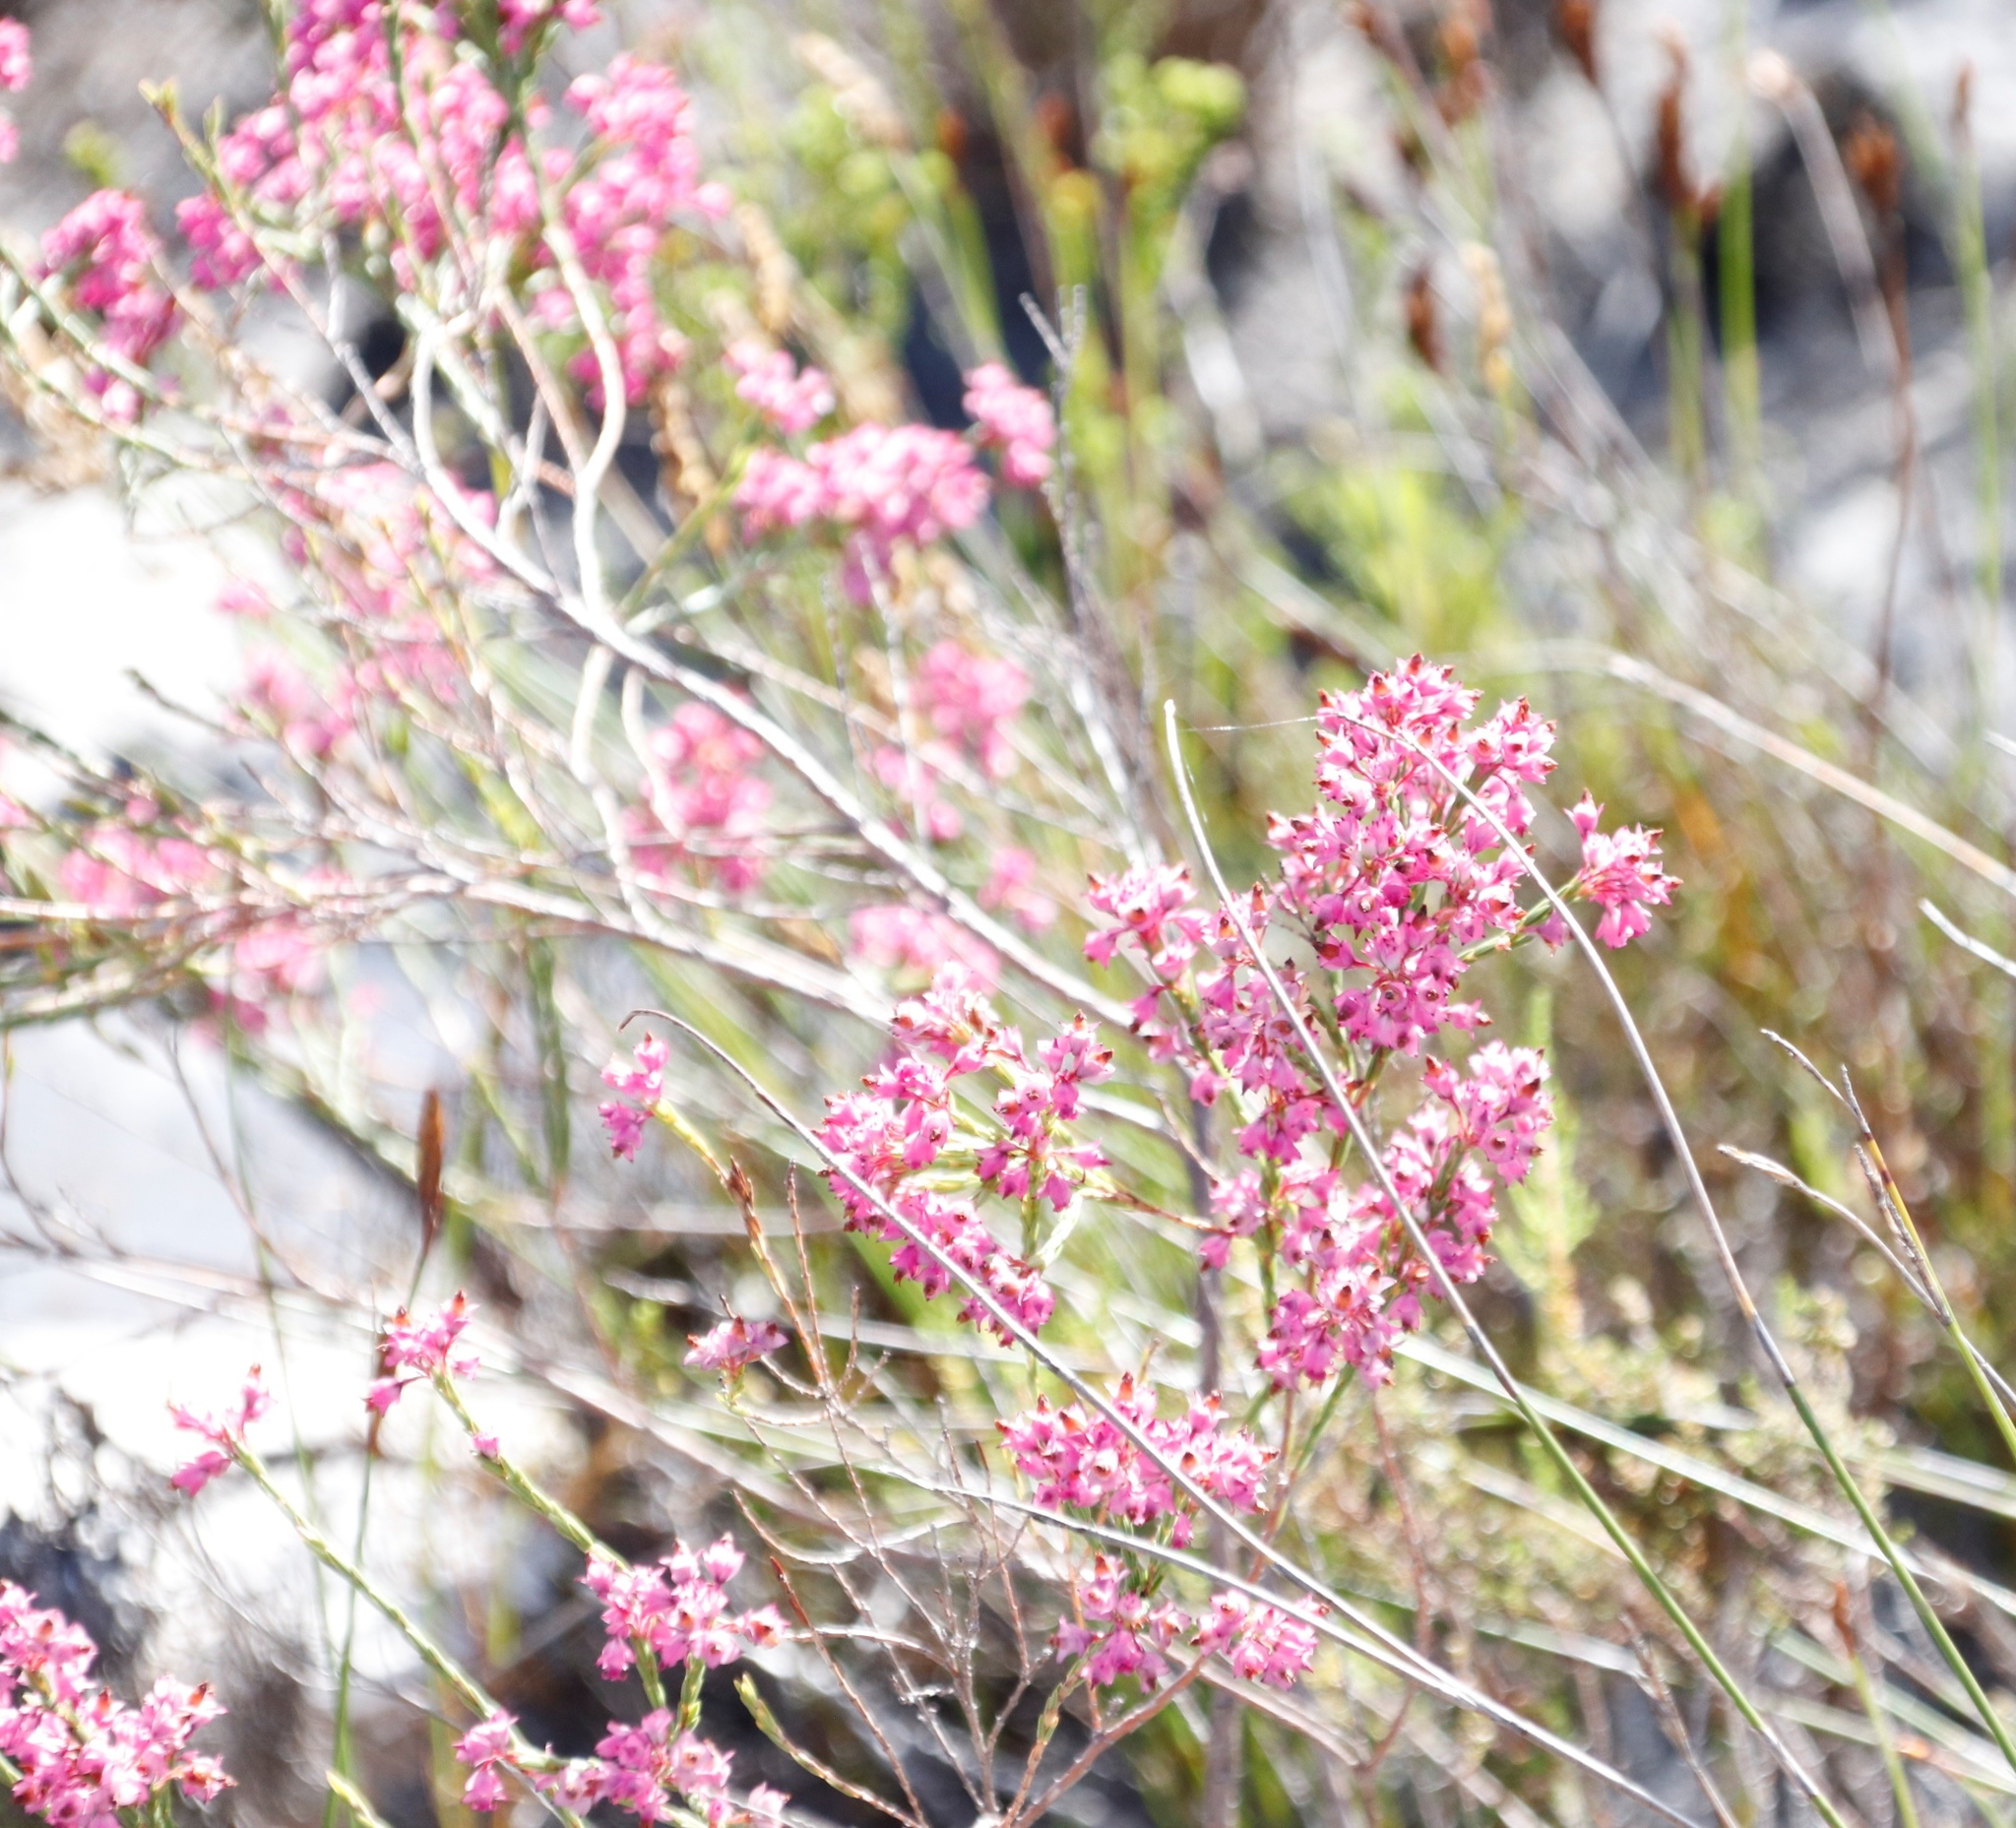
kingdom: Plantae
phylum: Tracheophyta
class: Magnoliopsida
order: Ericales
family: Ericaceae
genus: Erica
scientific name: Erica corifolia
